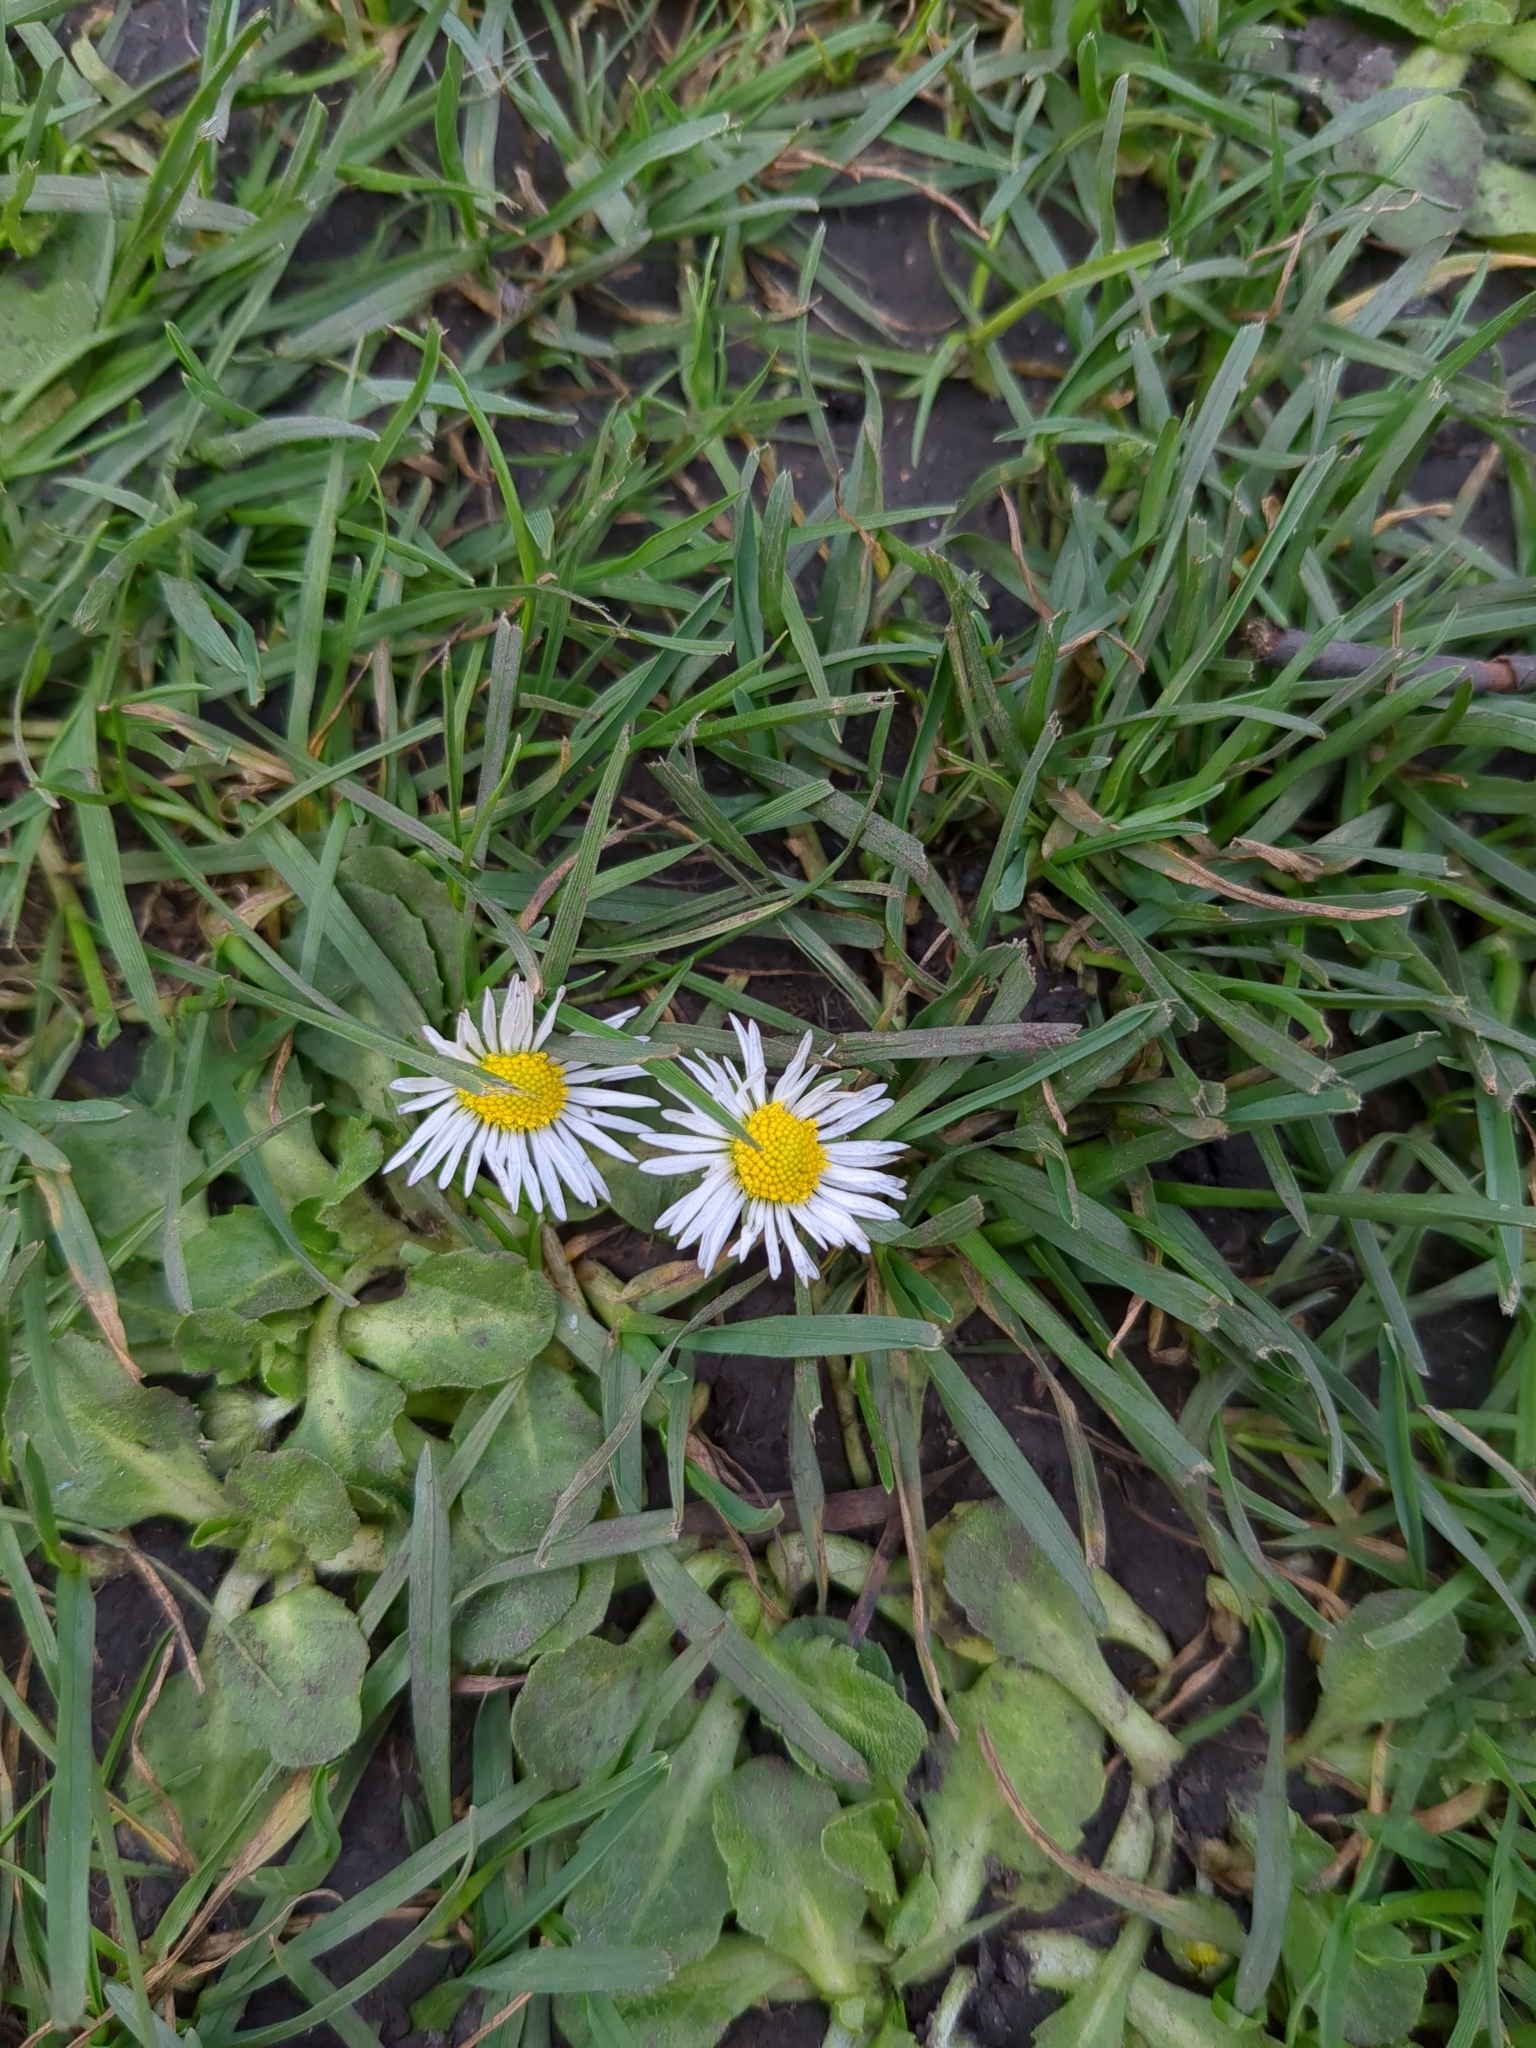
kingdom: Plantae
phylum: Tracheophyta
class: Magnoliopsida
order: Asterales
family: Asteraceae
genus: Bellis
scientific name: Bellis perennis
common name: Lawndaisy
